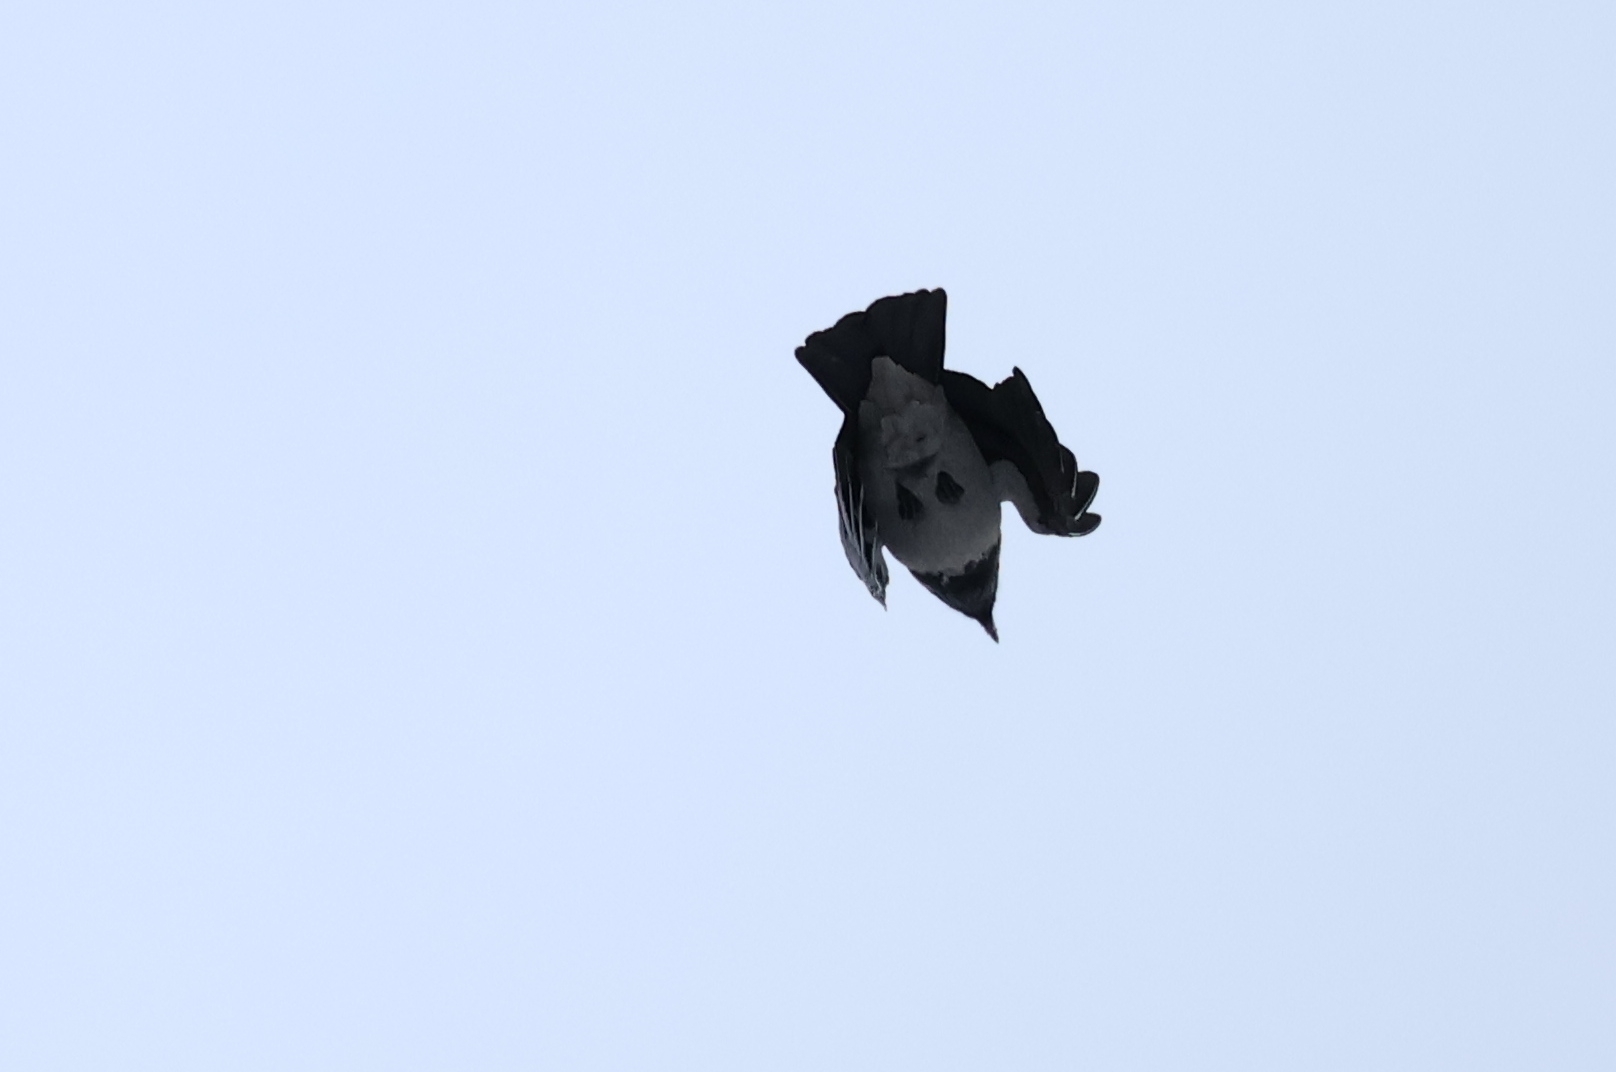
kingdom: Animalia
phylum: Chordata
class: Aves
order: Passeriformes
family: Corvidae
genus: Corvus
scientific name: Corvus cornix
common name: Hooded crow
